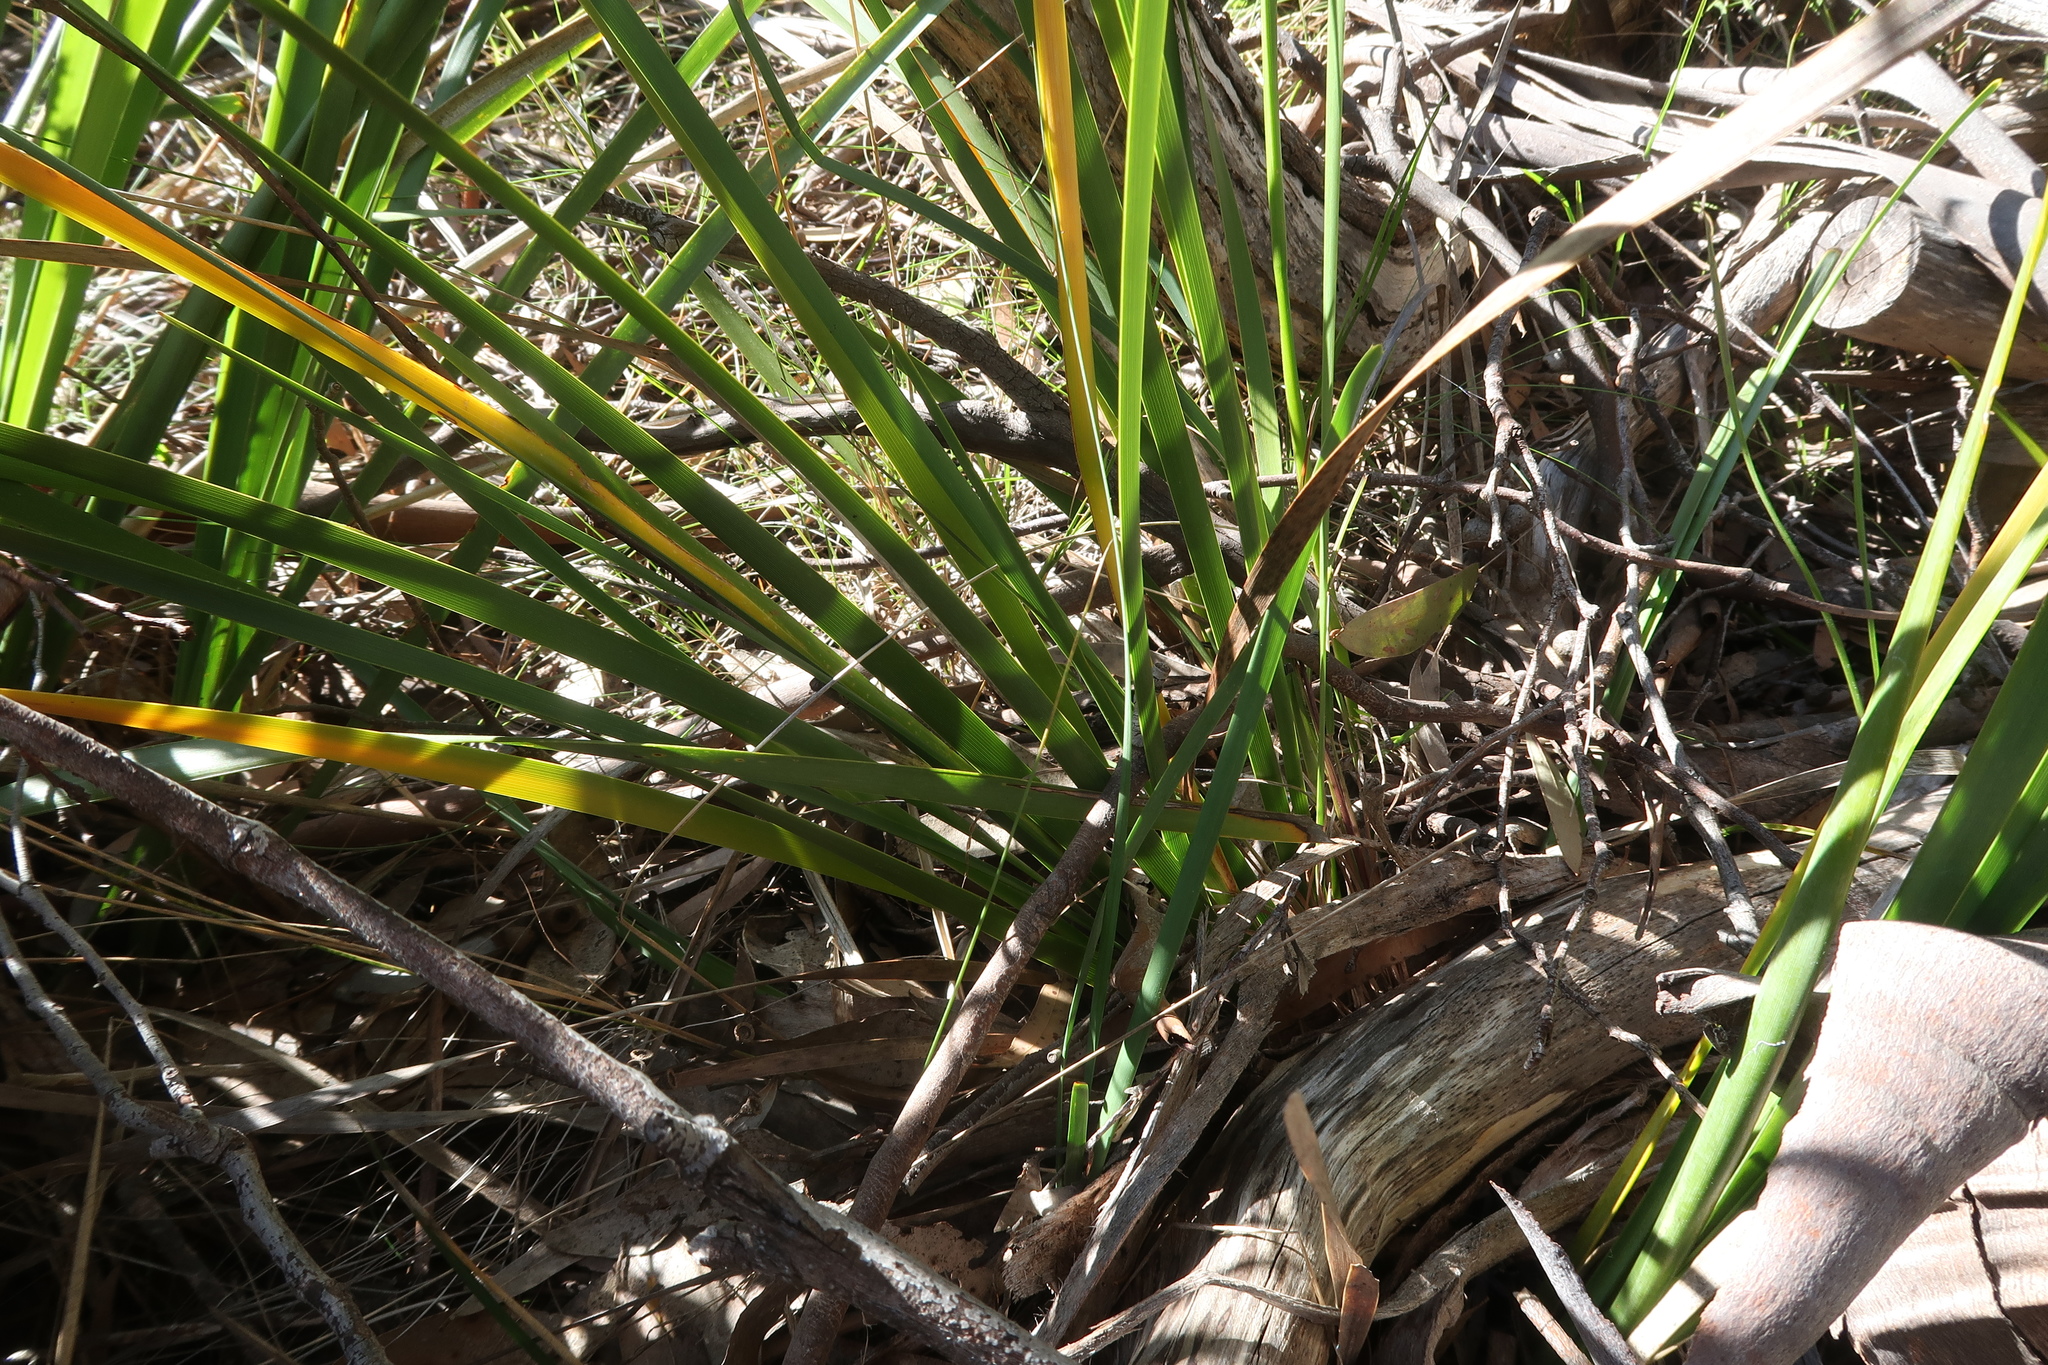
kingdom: Plantae
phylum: Tracheophyta
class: Liliopsida
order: Asparagales
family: Iridaceae
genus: Diplarrena
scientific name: Diplarrena moraea
